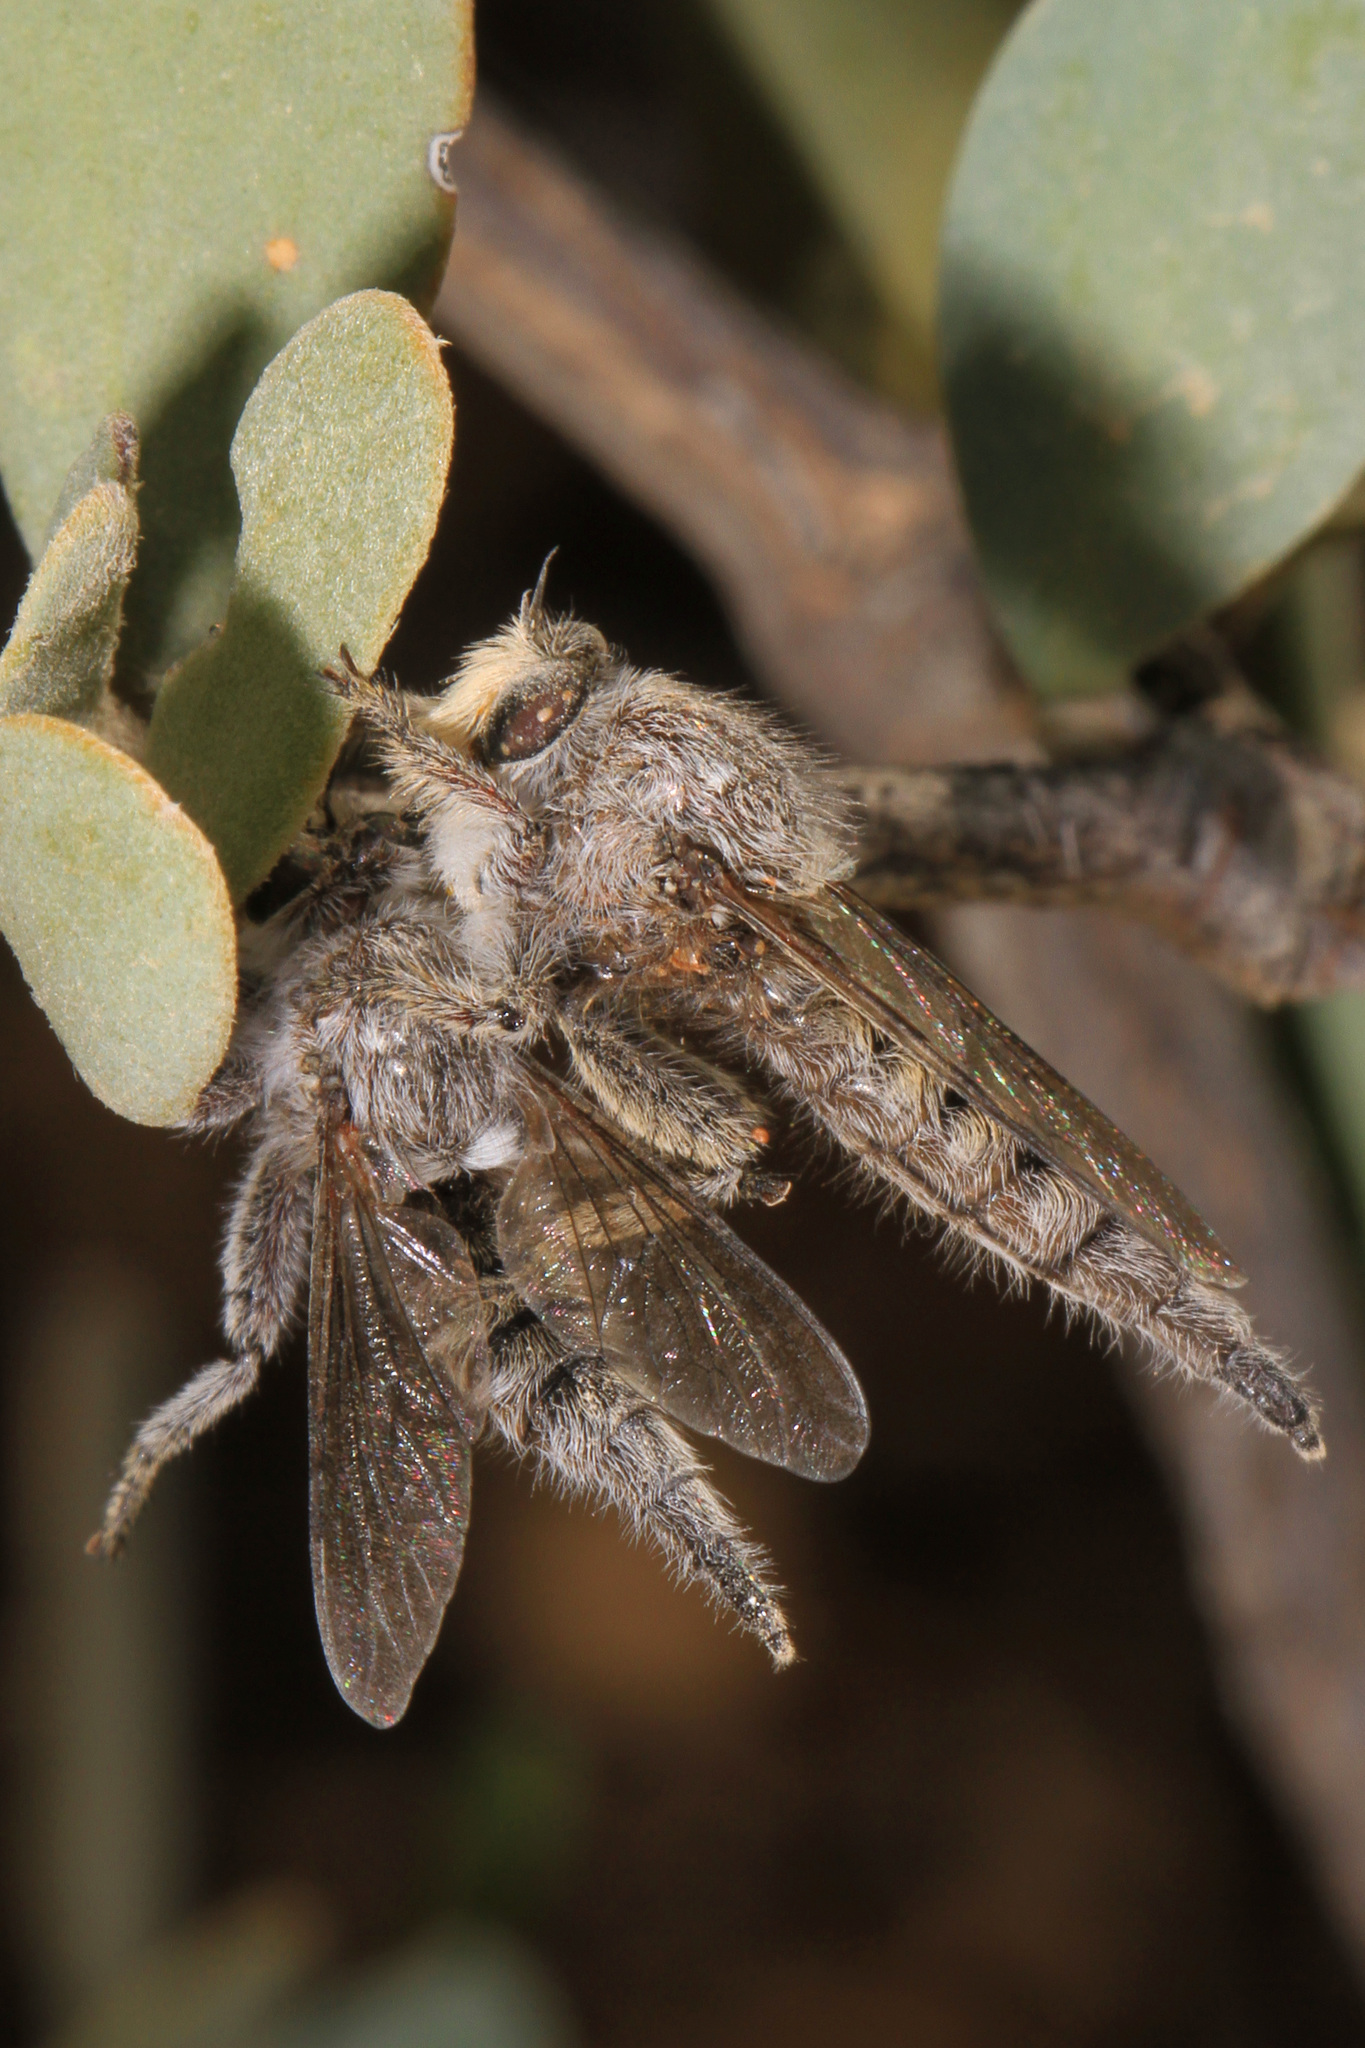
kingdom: Animalia
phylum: Arthropoda
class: Insecta
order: Diptera
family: Asilidae
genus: Promachella
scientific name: Promachella pilosa
